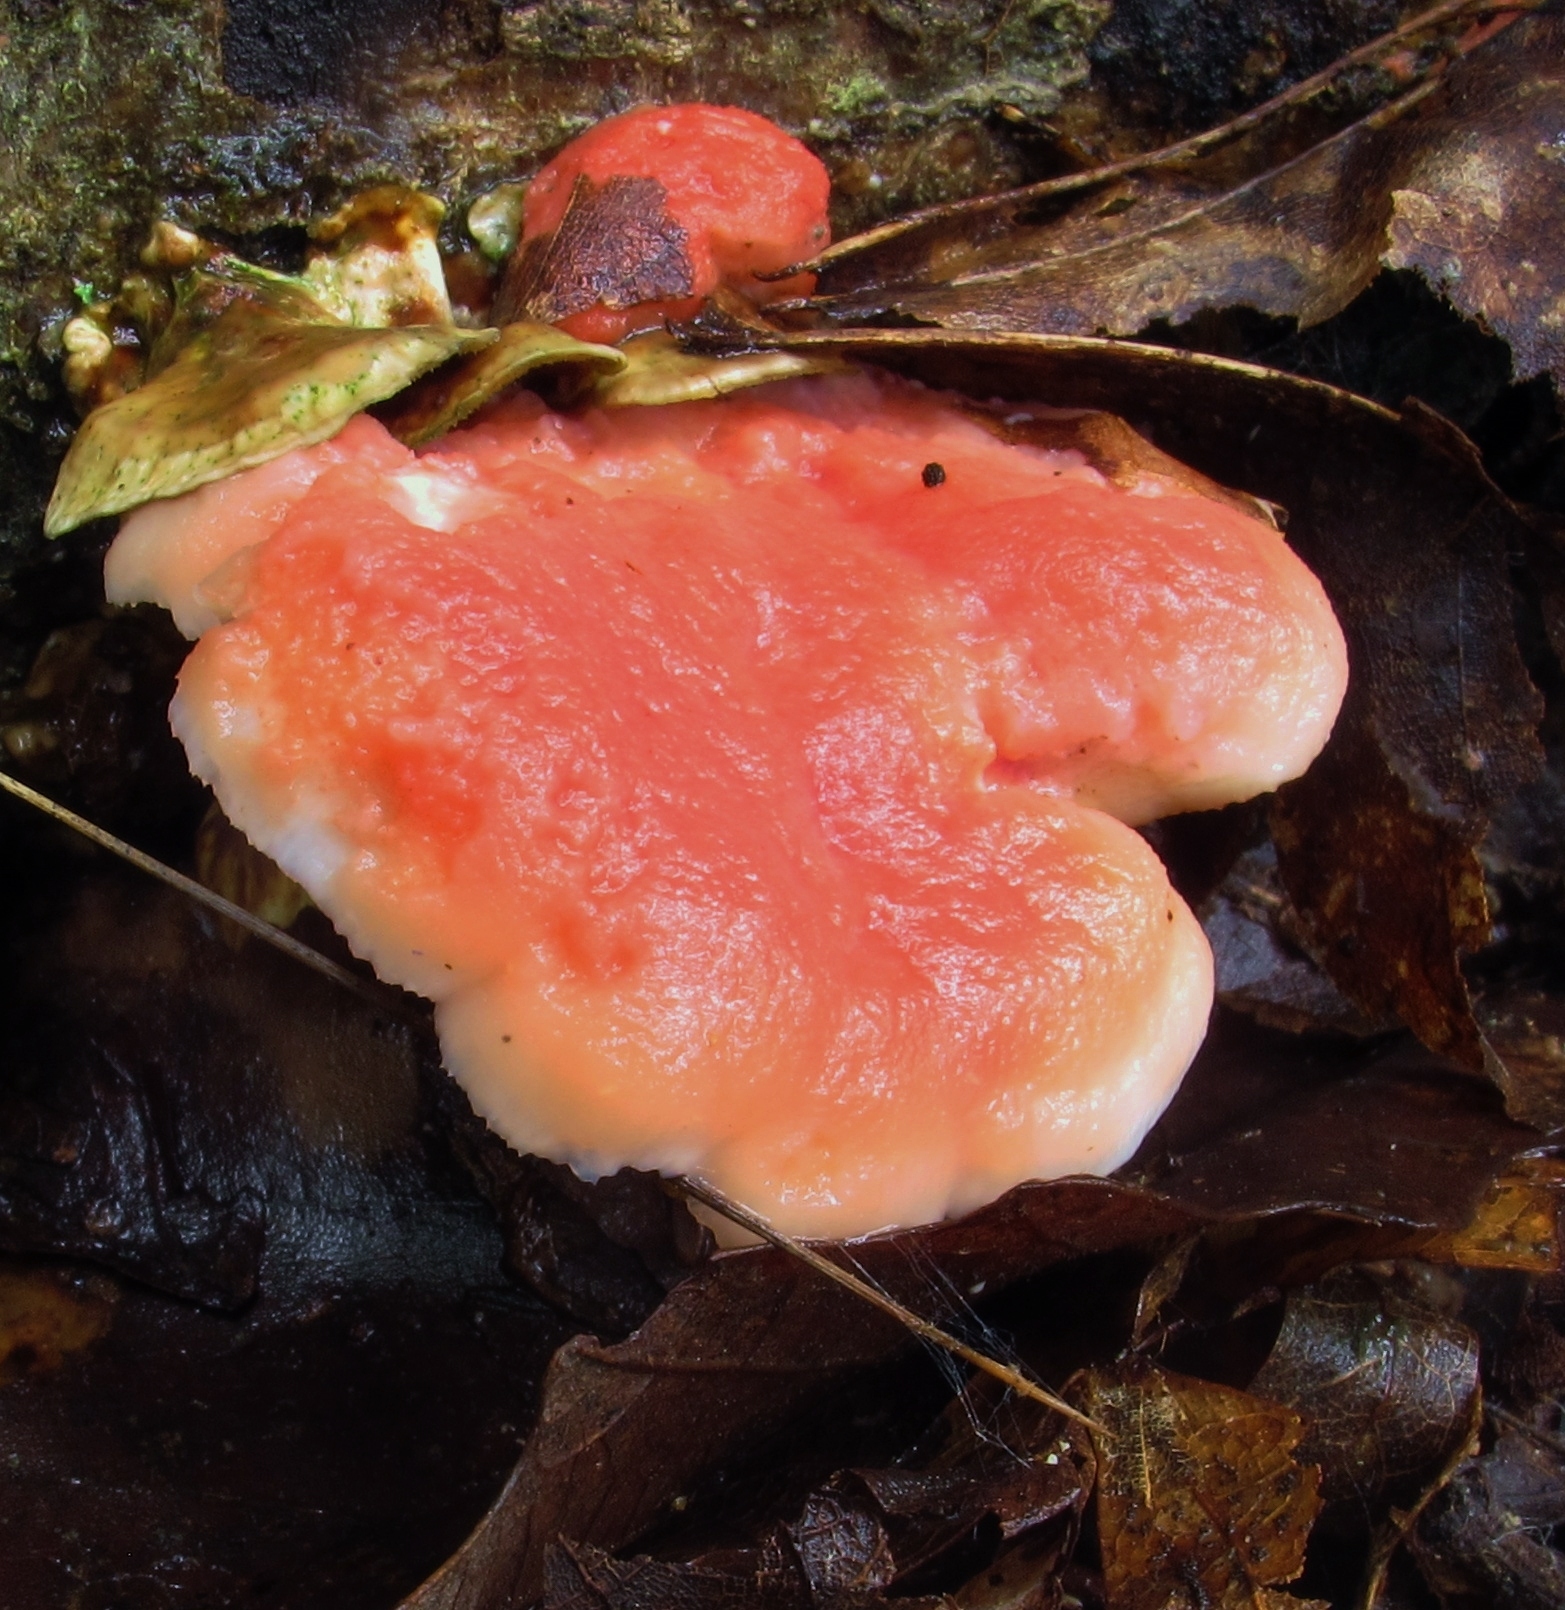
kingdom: Fungi
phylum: Basidiomycota
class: Agaricomycetes
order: Polyporales
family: Irpicaceae
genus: Byssomerulius
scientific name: Byssomerulius incarnatus
